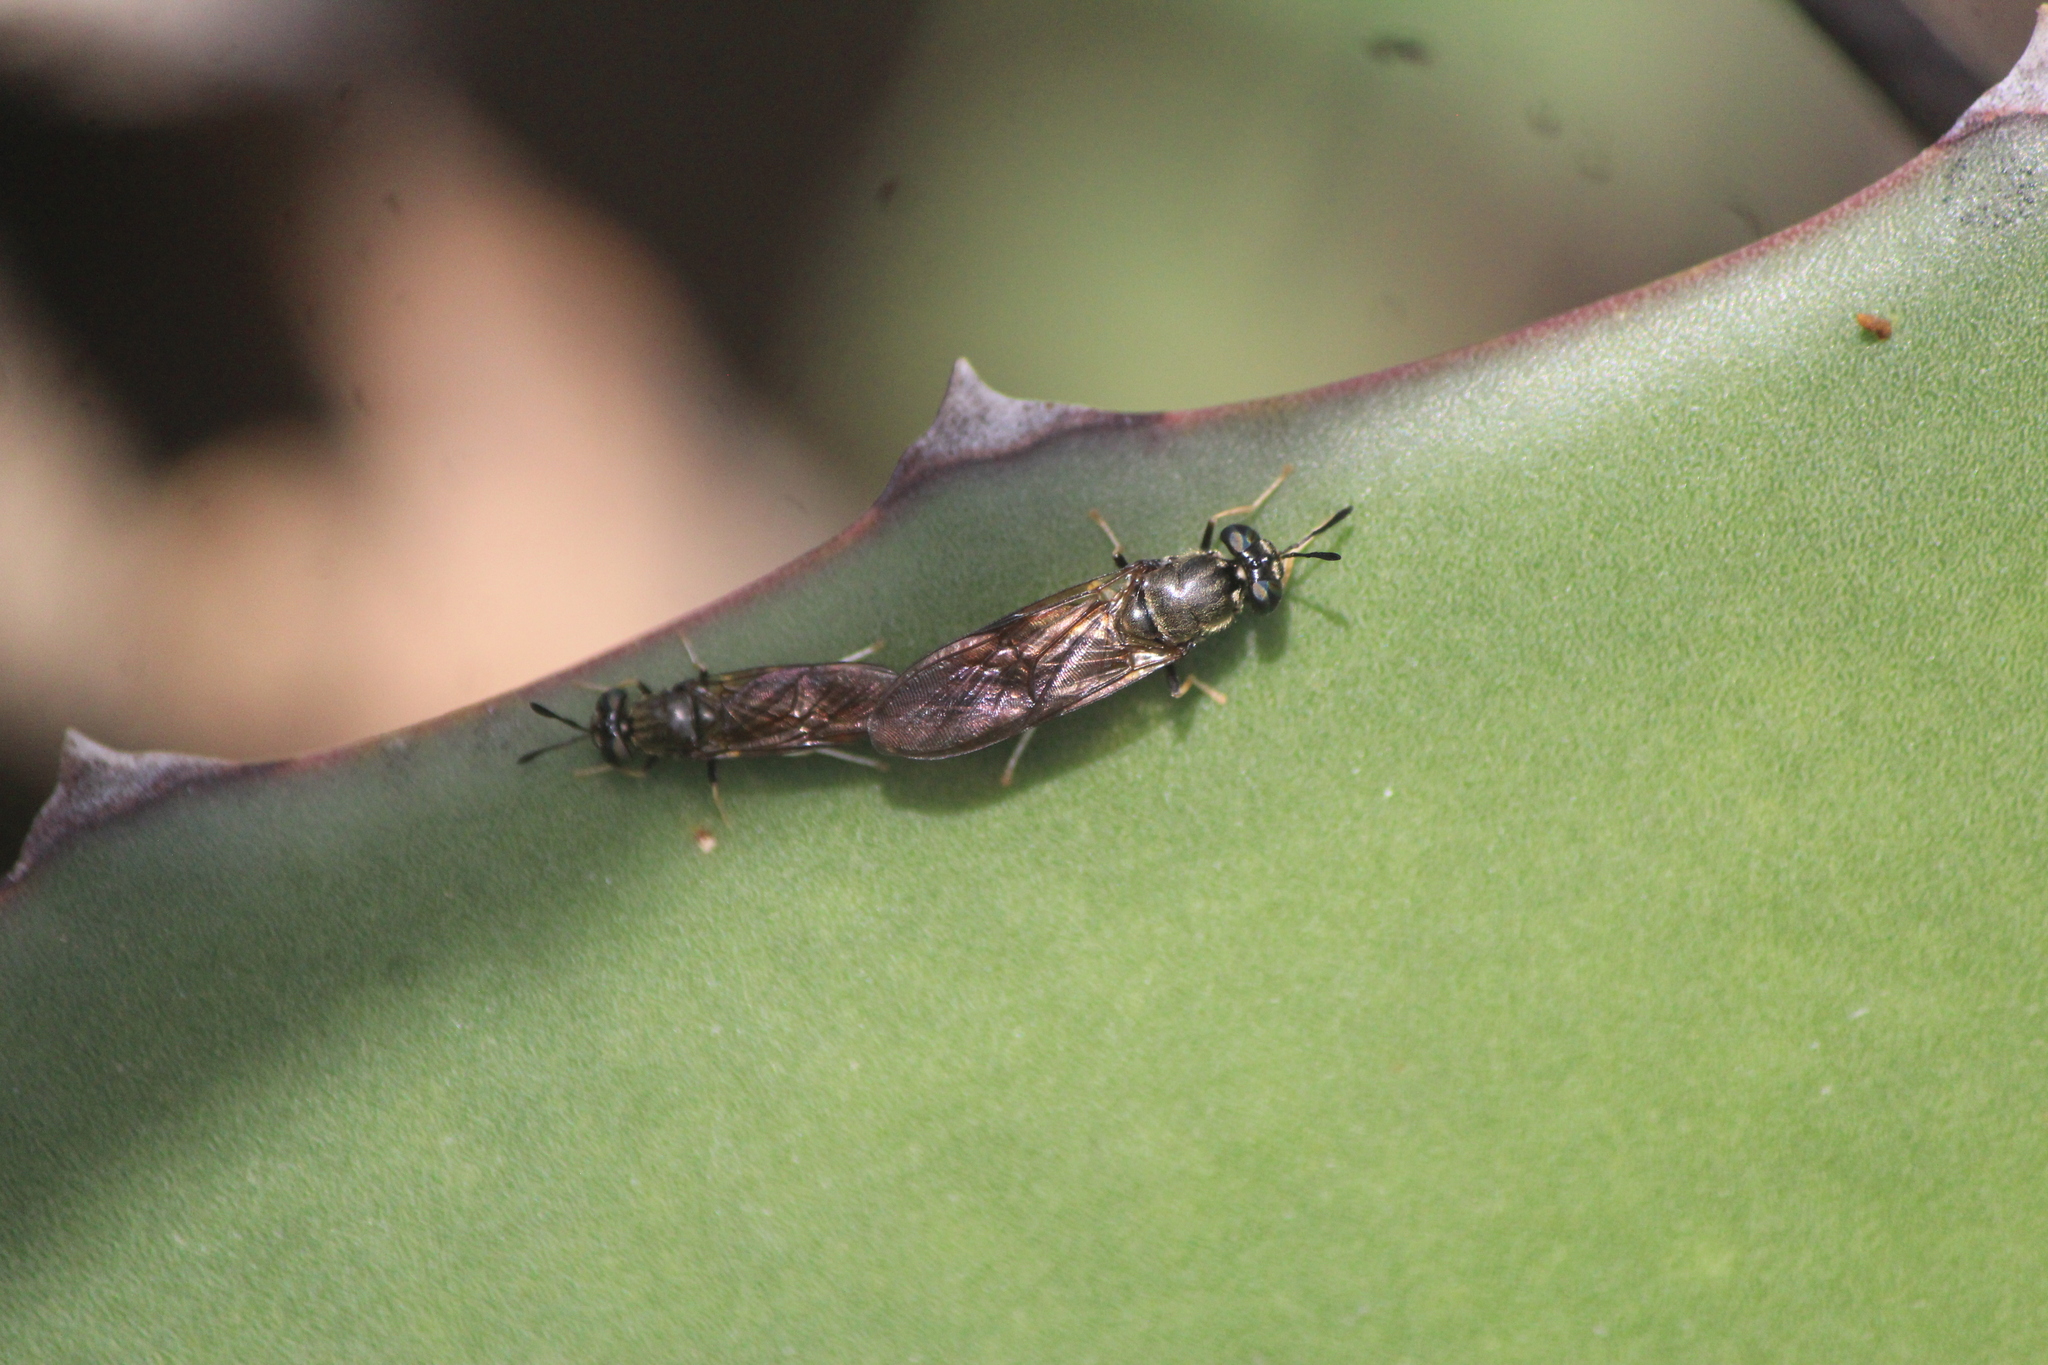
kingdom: Animalia
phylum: Arthropoda
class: Insecta
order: Diptera
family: Stratiomyidae
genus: Hermetia
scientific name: Hermetia lativentris
